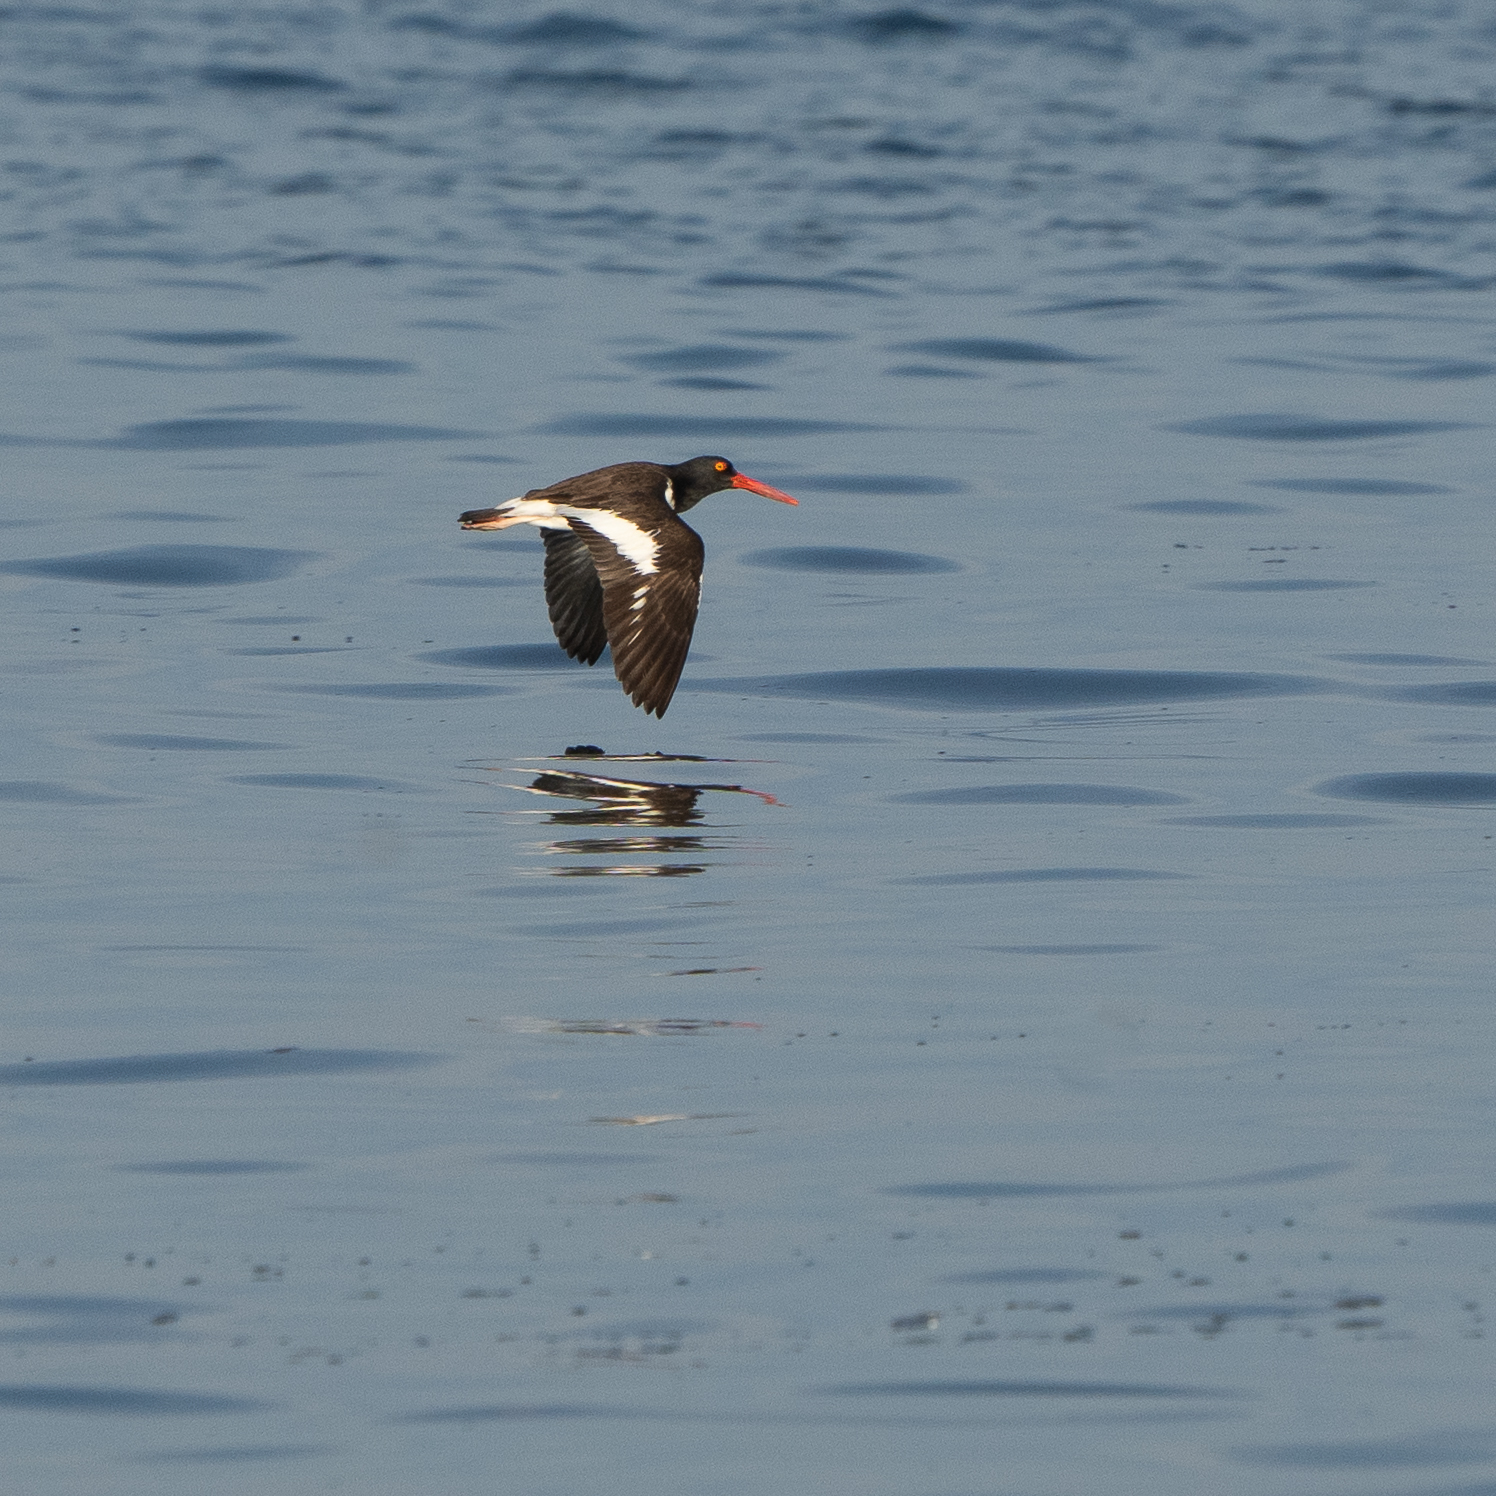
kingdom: Animalia
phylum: Chordata
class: Aves
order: Charadriiformes
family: Haematopodidae
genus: Haematopus
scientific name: Haematopus palliatus
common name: American oystercatcher
